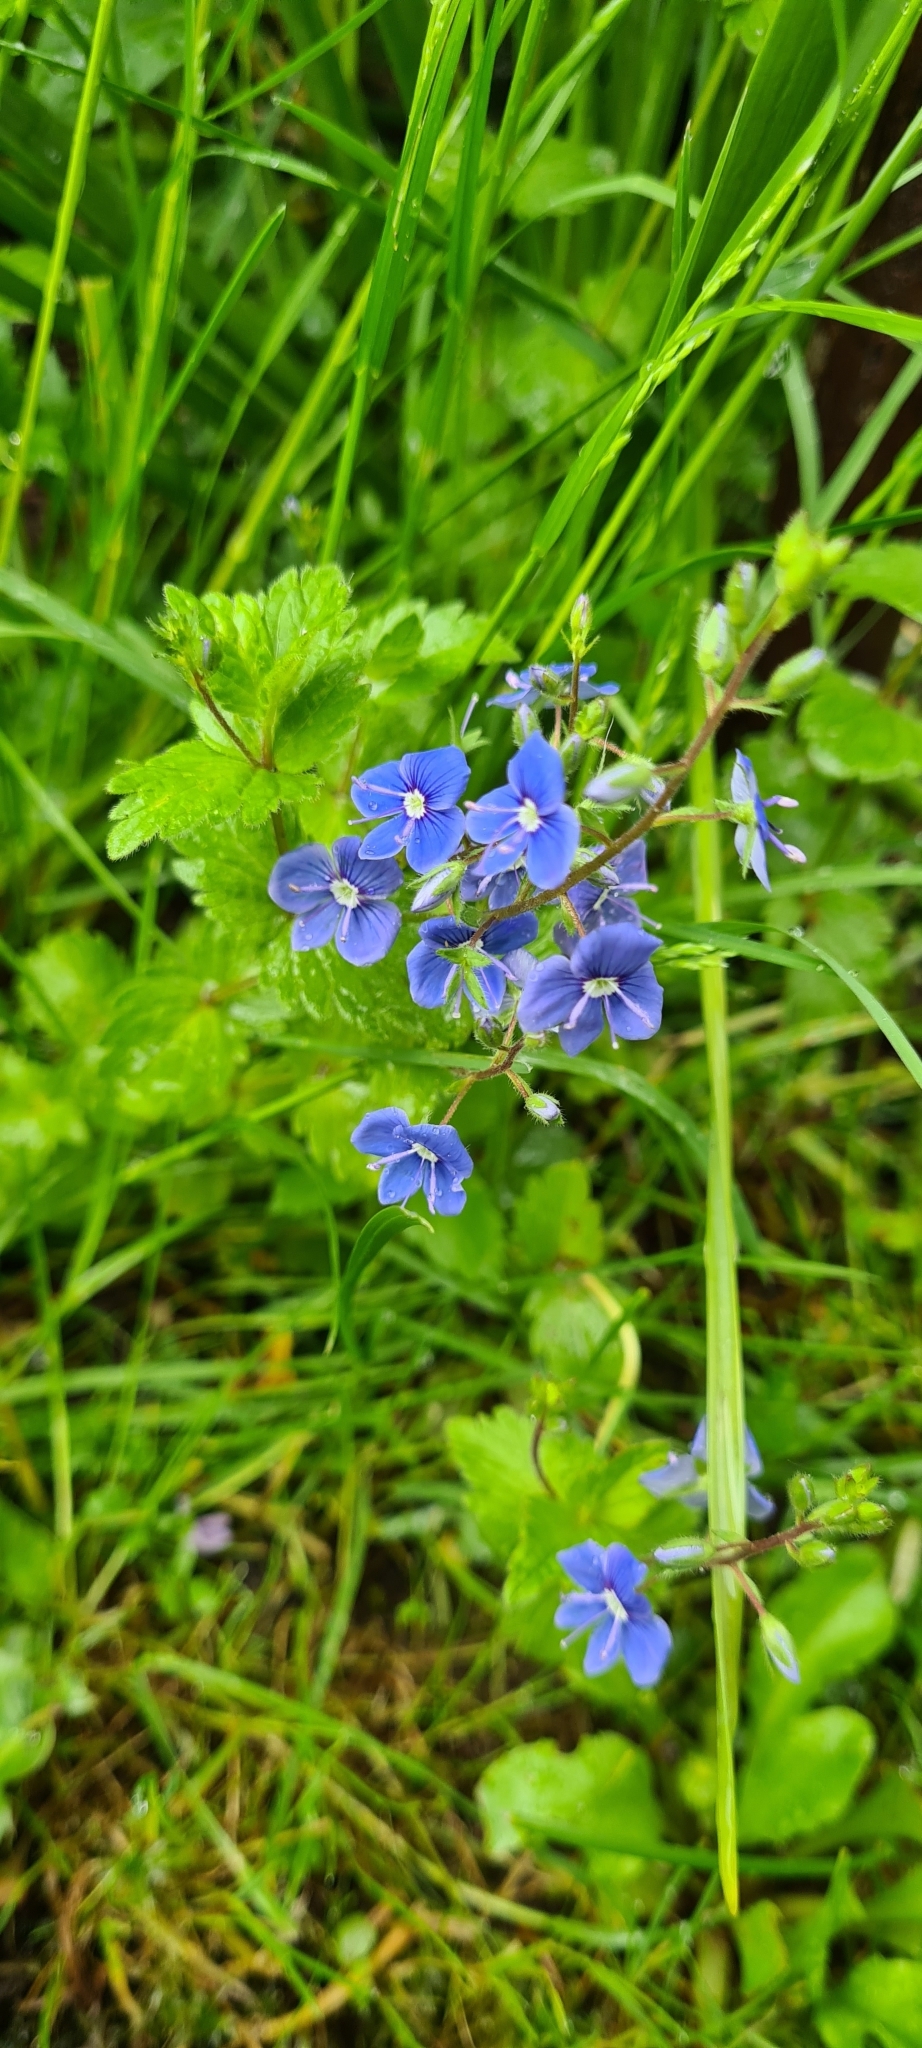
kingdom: Plantae
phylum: Tracheophyta
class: Magnoliopsida
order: Lamiales
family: Plantaginaceae
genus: Veronica
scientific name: Veronica chamaedrys
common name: Germander speedwell
